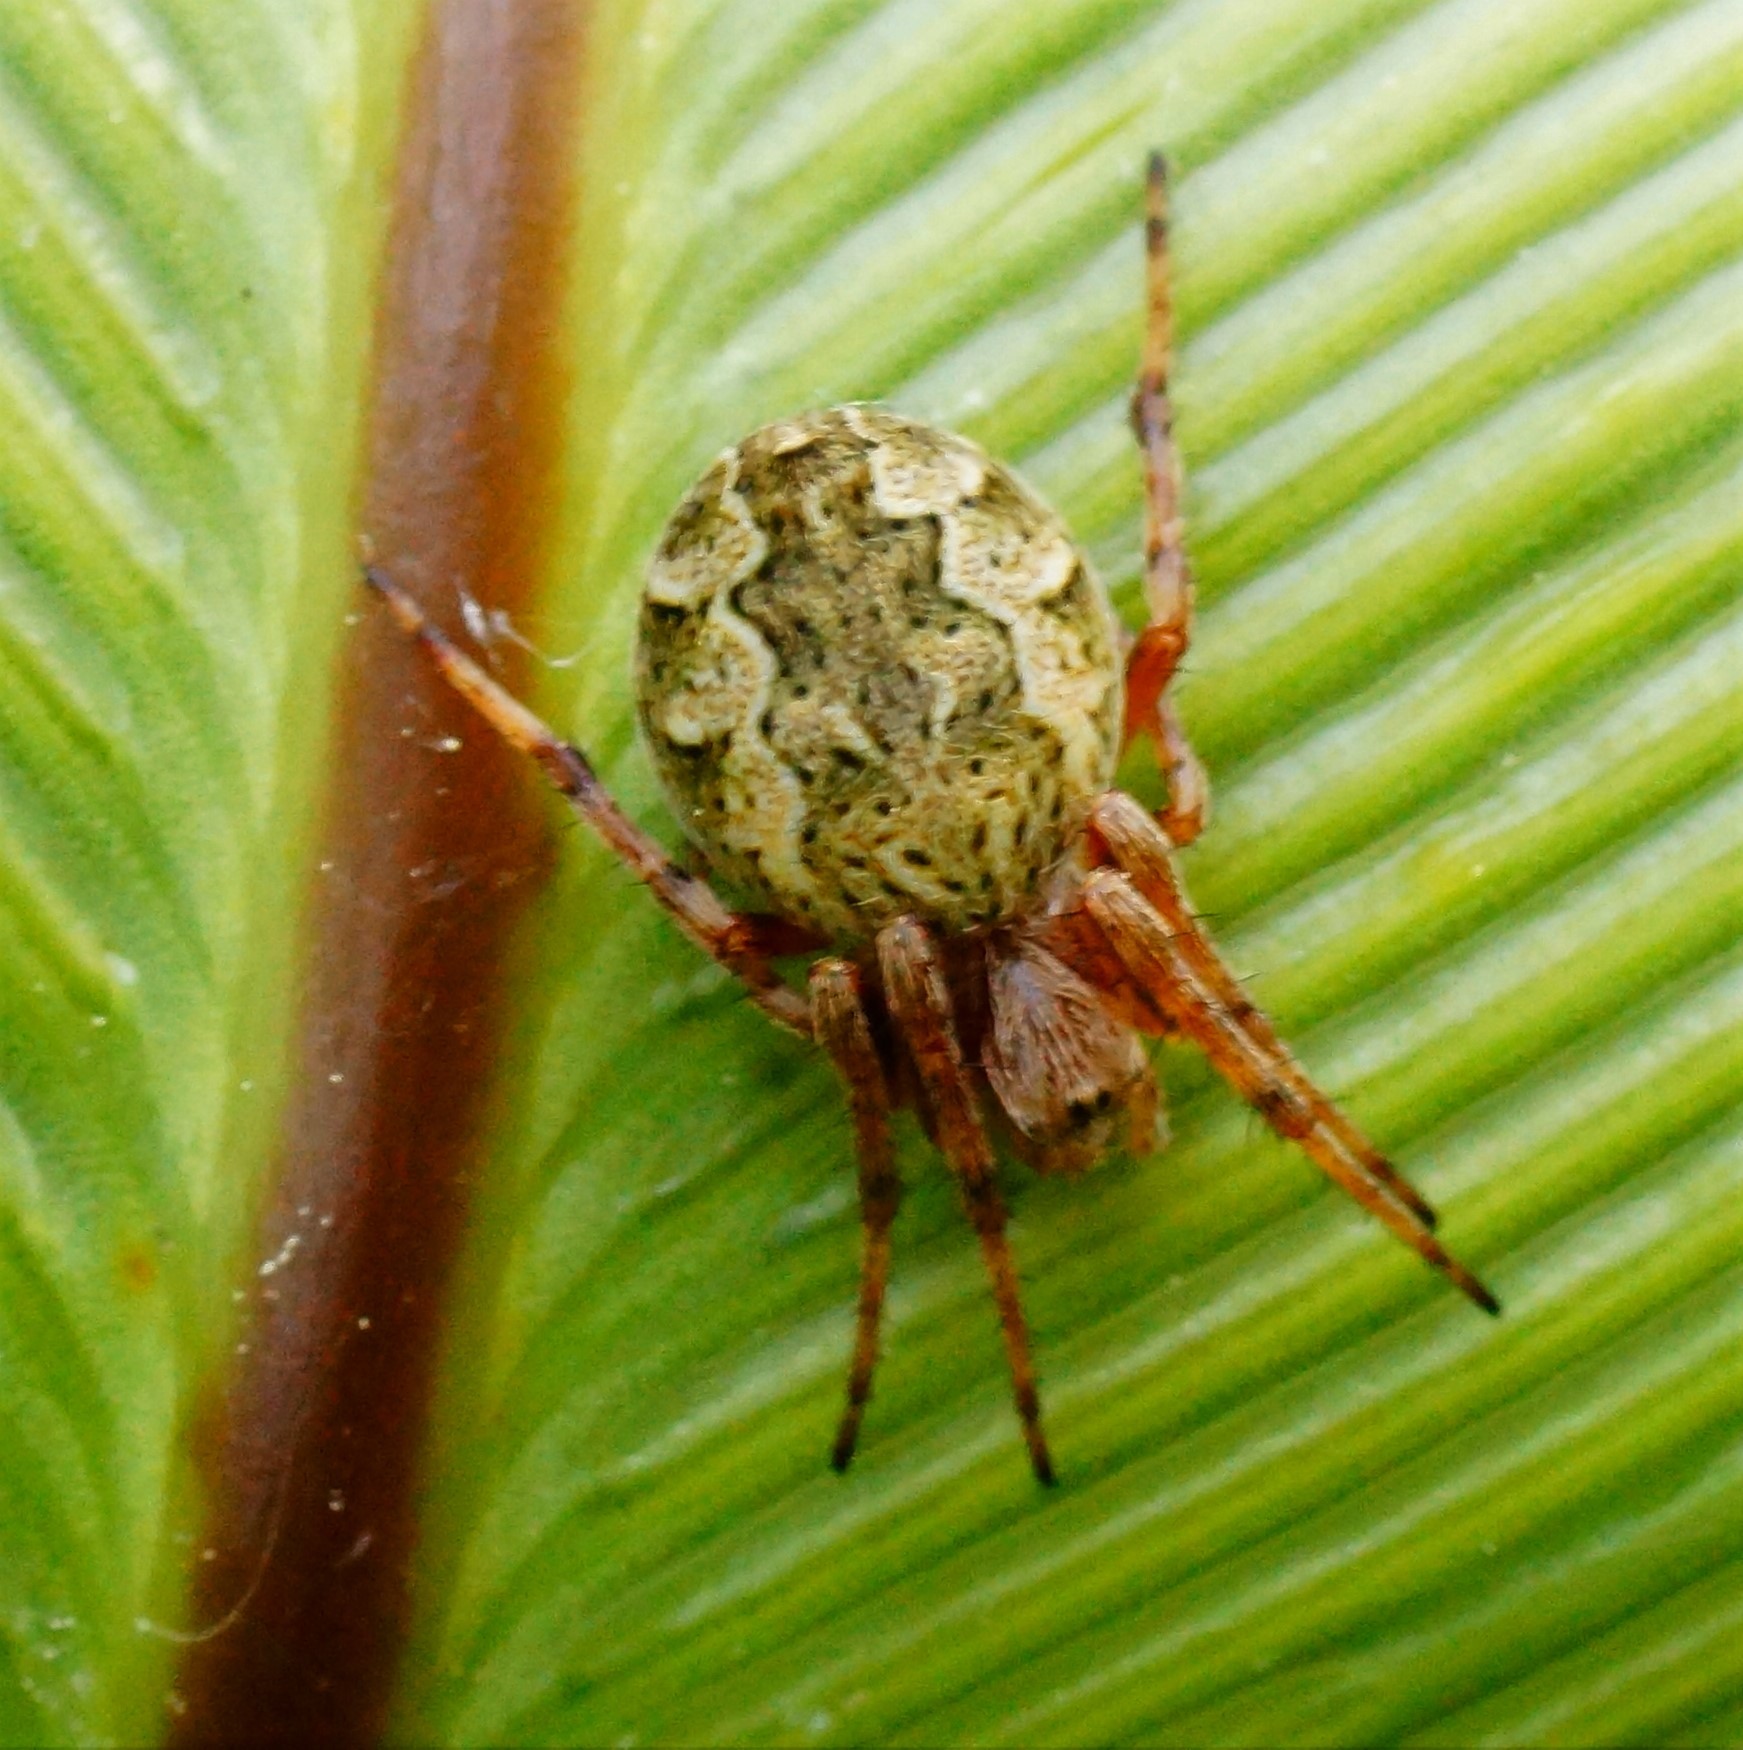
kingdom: Animalia
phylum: Arthropoda
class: Arachnida
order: Araneae
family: Araneidae
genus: Salsa
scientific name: Salsa fuliginata
